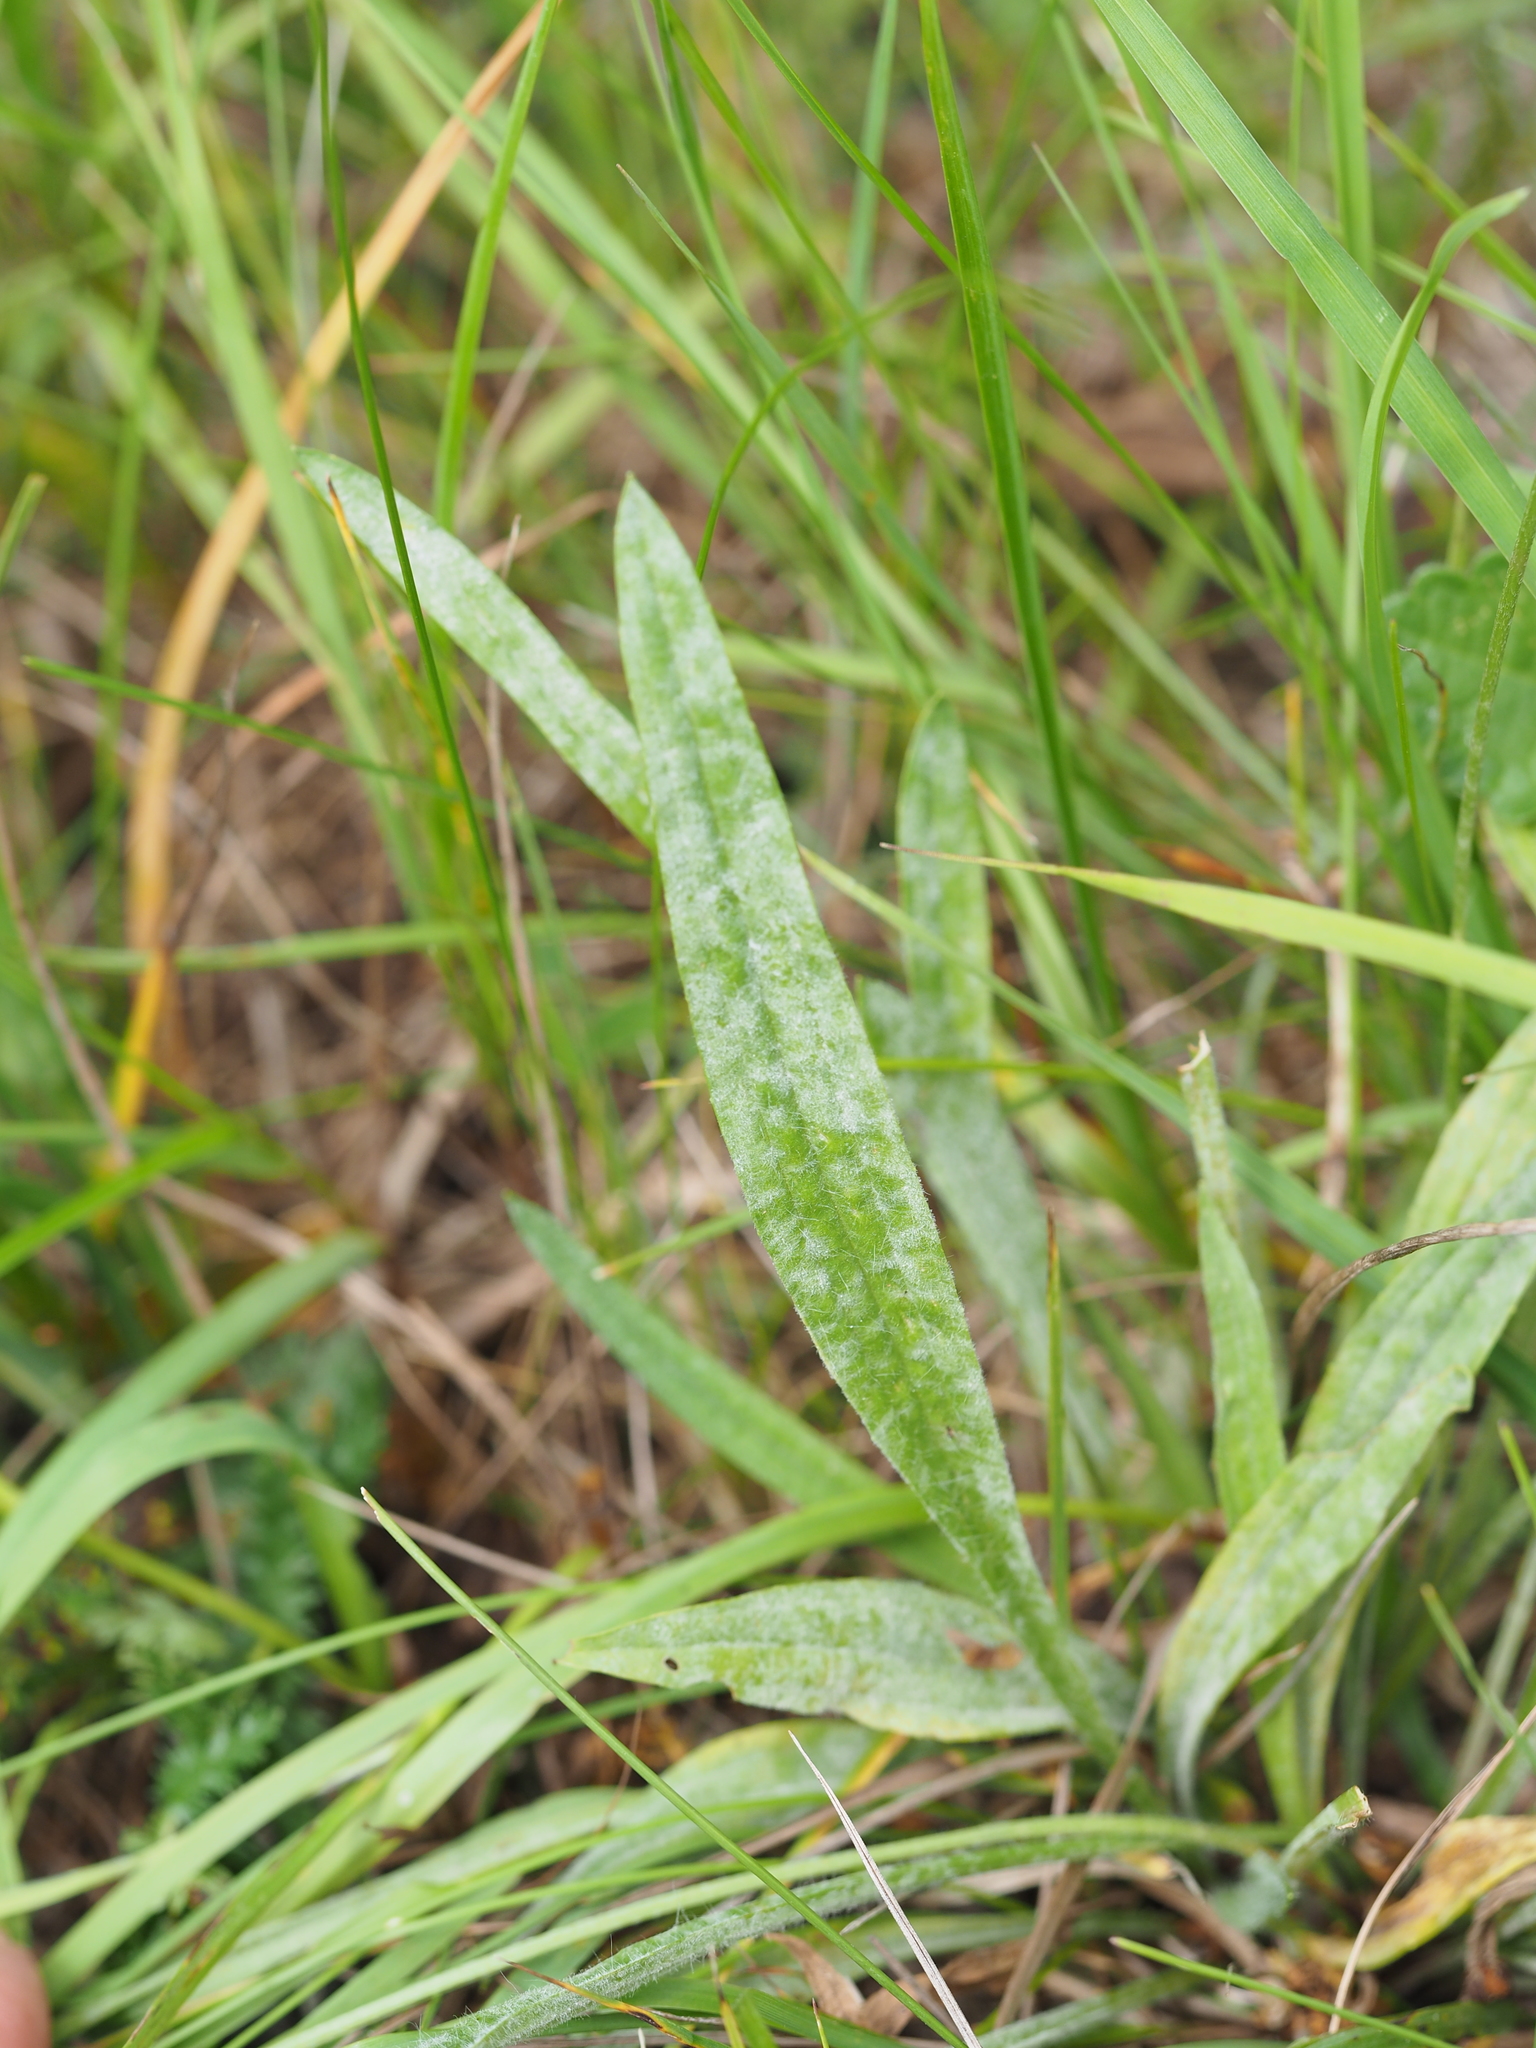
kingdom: Fungi
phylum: Ascomycota
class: Leotiomycetes
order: Helotiales
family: Erysiphaceae
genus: Podosphaera
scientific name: Podosphaera plantaginis
